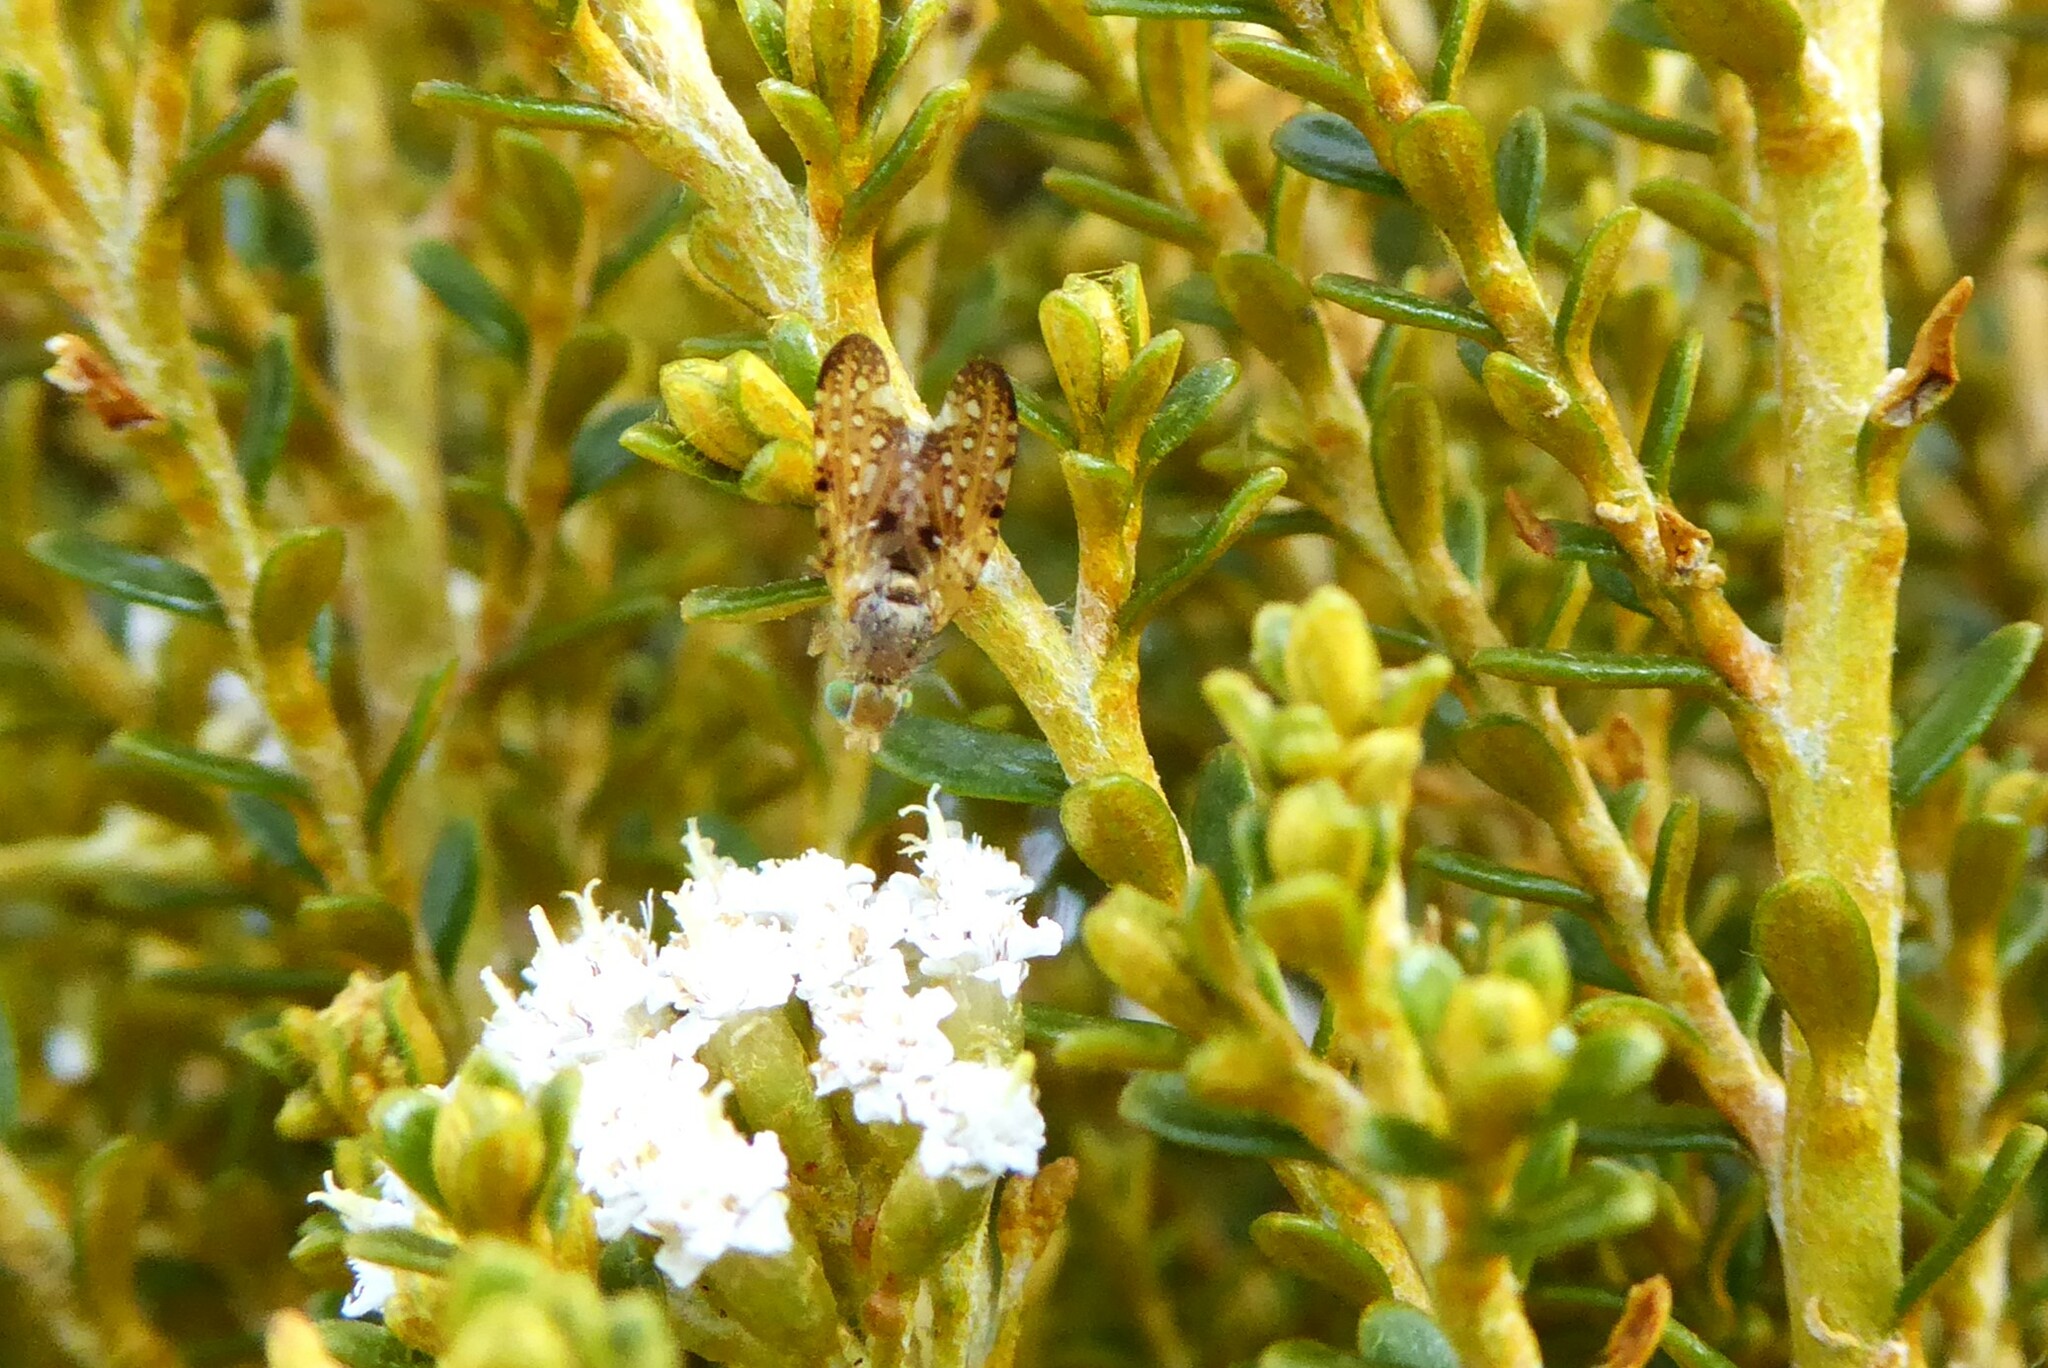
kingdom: Animalia
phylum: Arthropoda
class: Insecta
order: Diptera
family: Tephritidae
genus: Austrotephritis
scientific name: Austrotephritis
